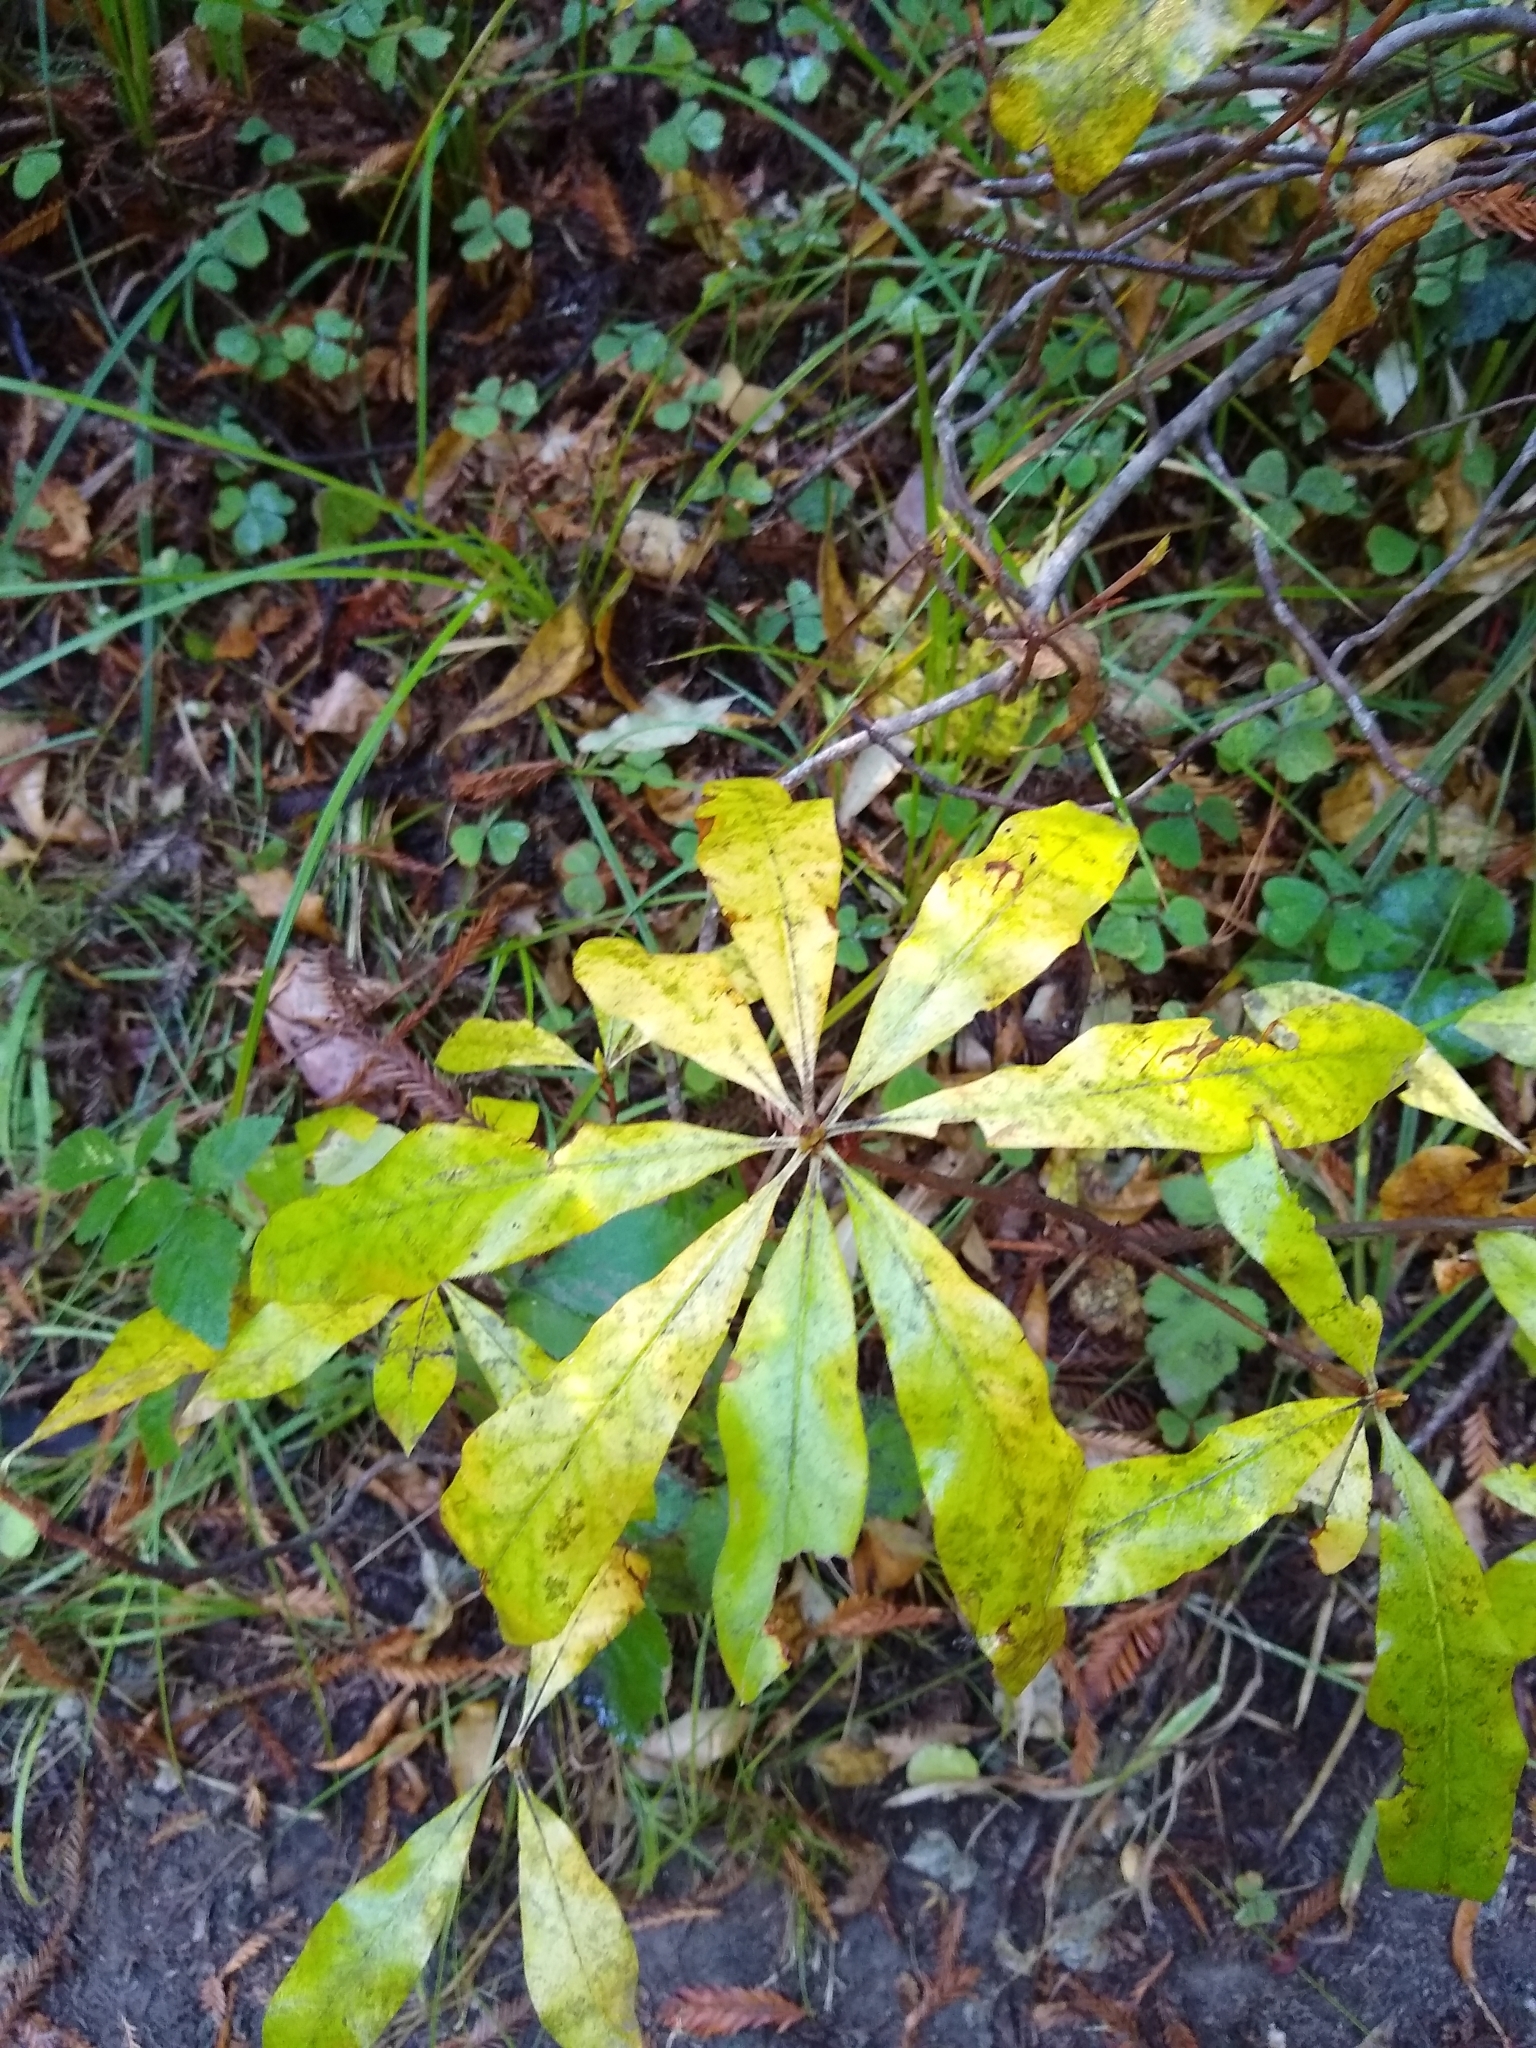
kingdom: Plantae
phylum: Tracheophyta
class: Magnoliopsida
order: Ericales
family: Ericaceae
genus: Rhododendron
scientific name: Rhododendron occidentale
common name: Western azalea
